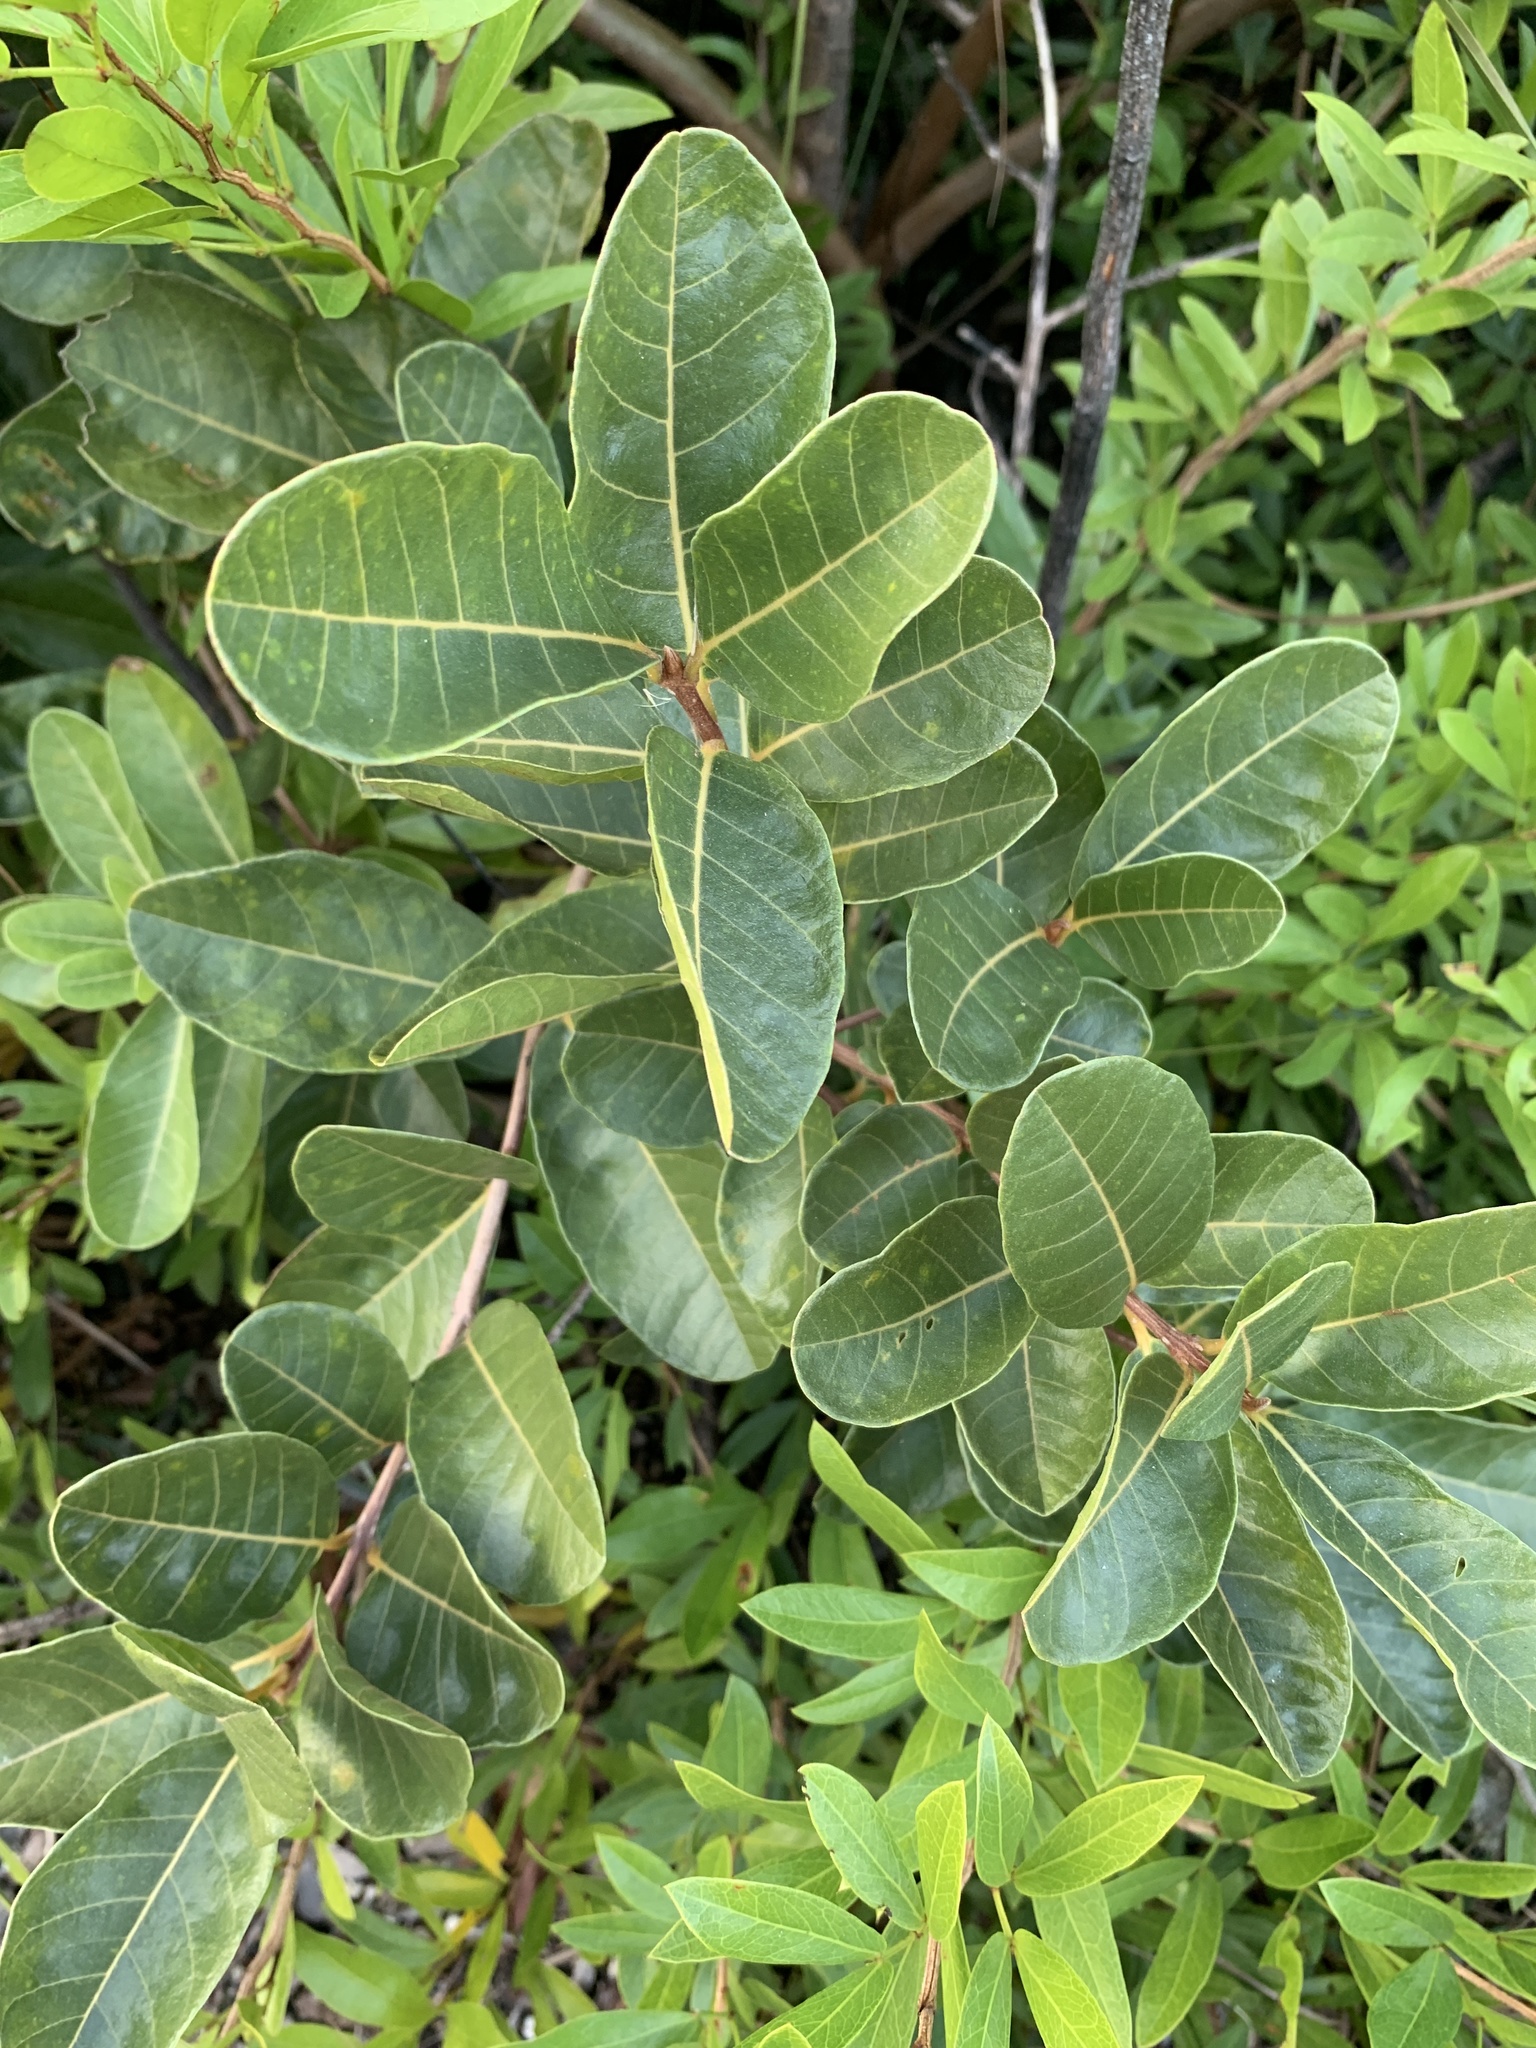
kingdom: Plantae
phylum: Tracheophyta
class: Magnoliopsida
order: Caryophyllales
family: Nyctaginaceae
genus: Pisonia
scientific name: Pisonia rotundata
